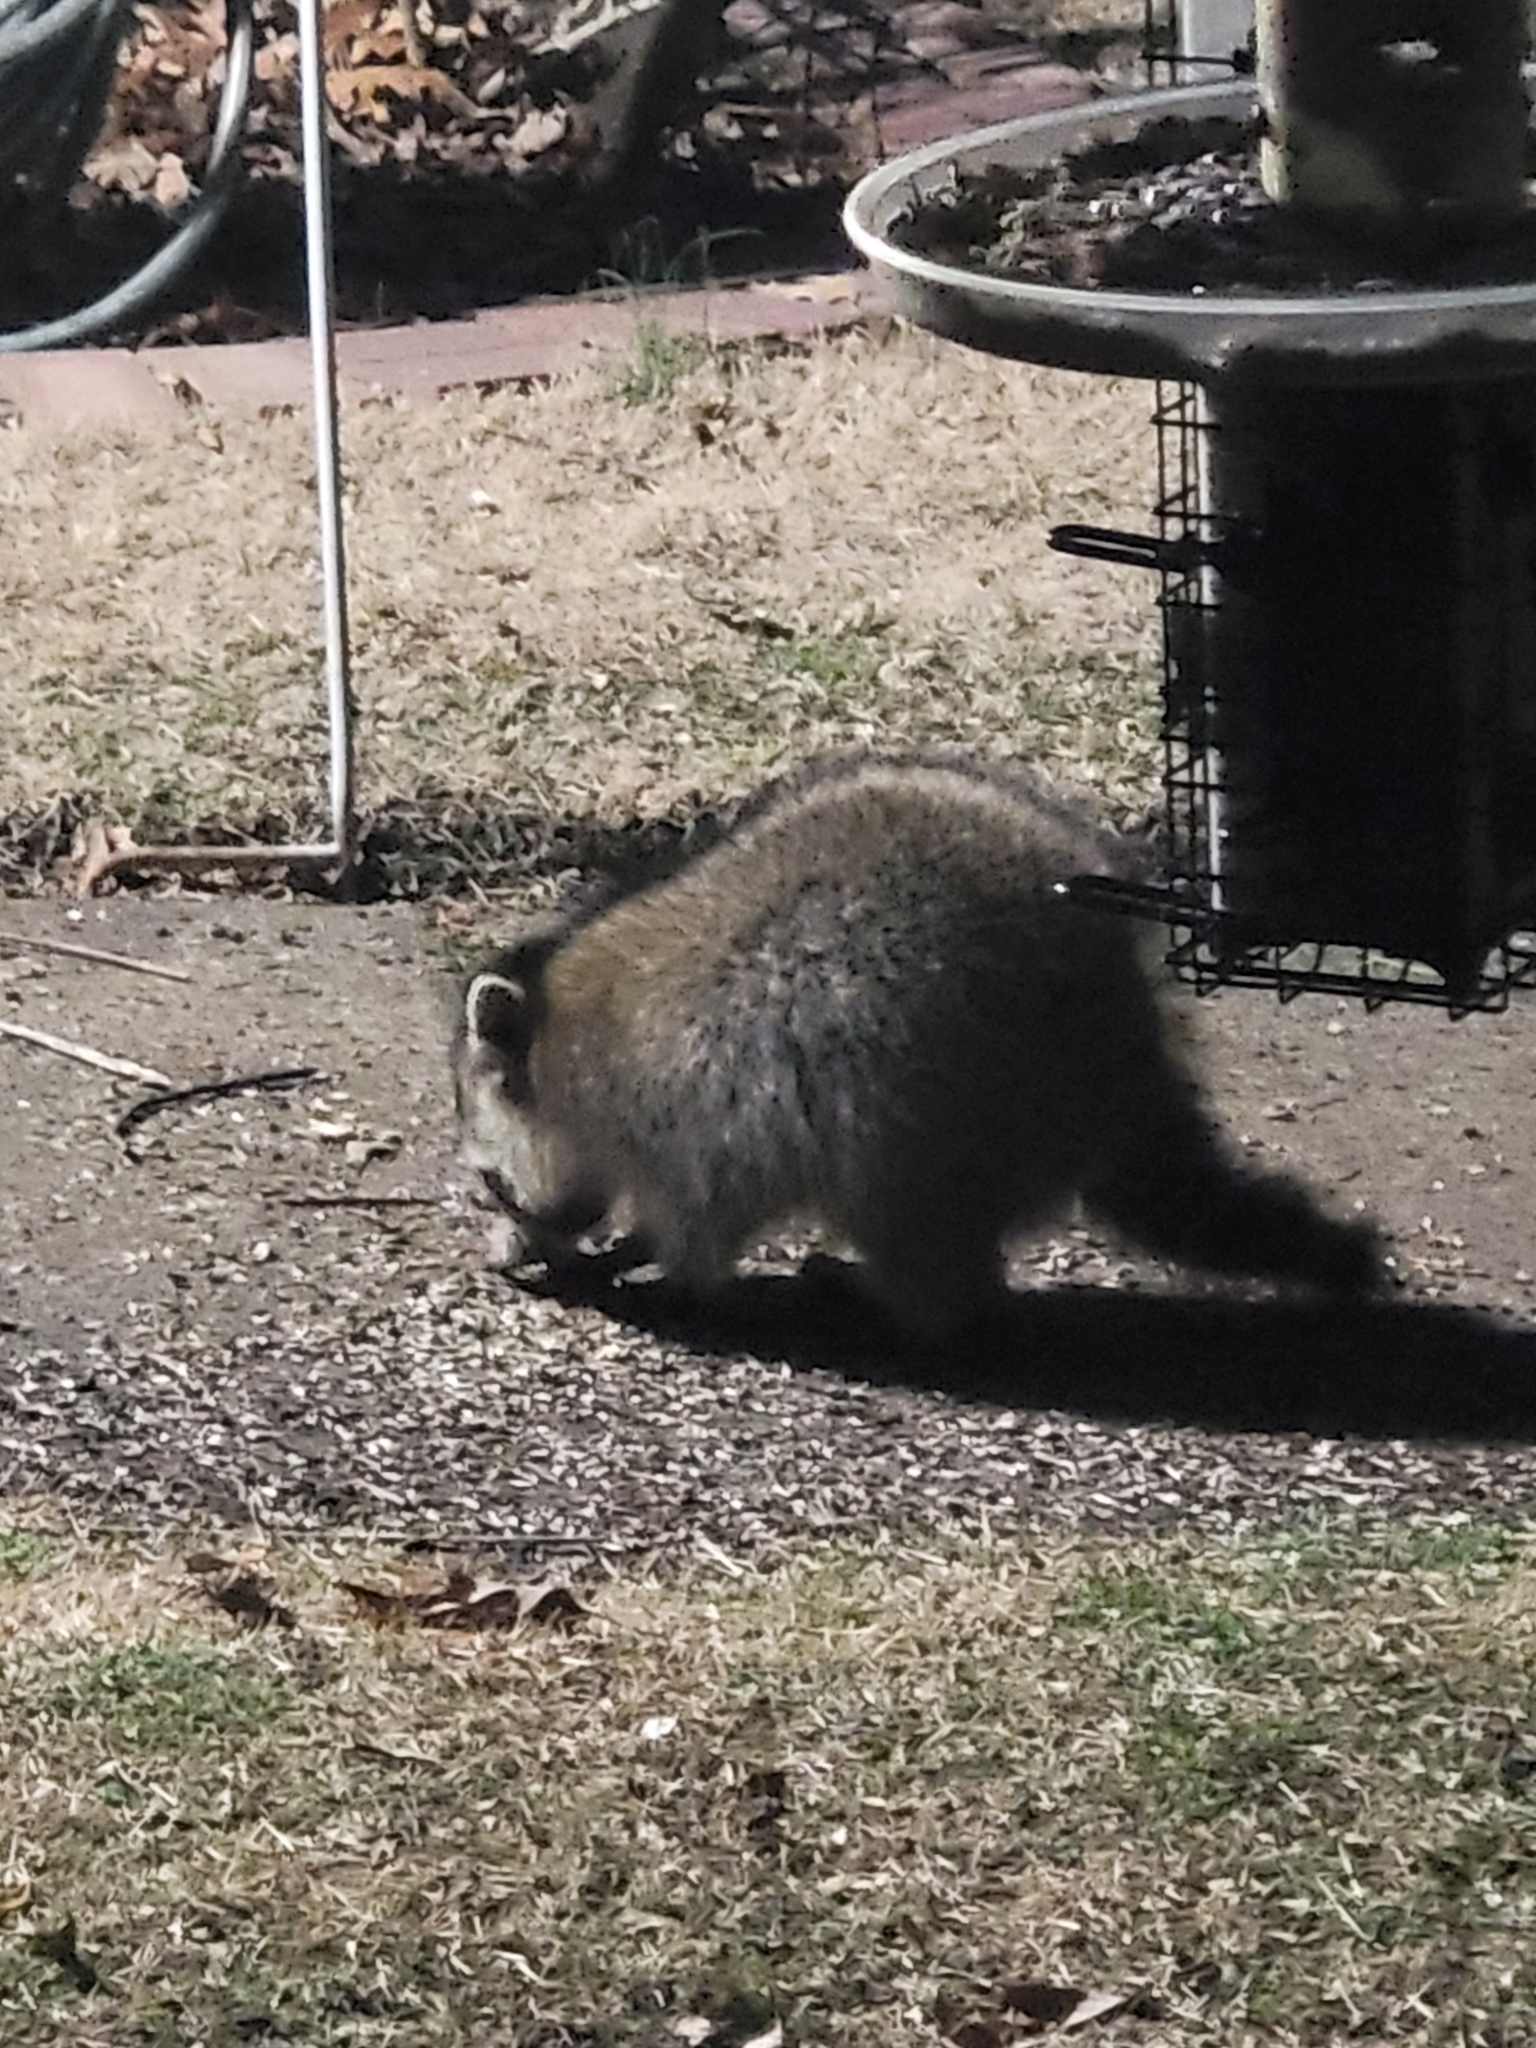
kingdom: Animalia
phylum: Chordata
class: Mammalia
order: Carnivora
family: Procyonidae
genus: Procyon
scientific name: Procyon lotor
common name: Raccoon
